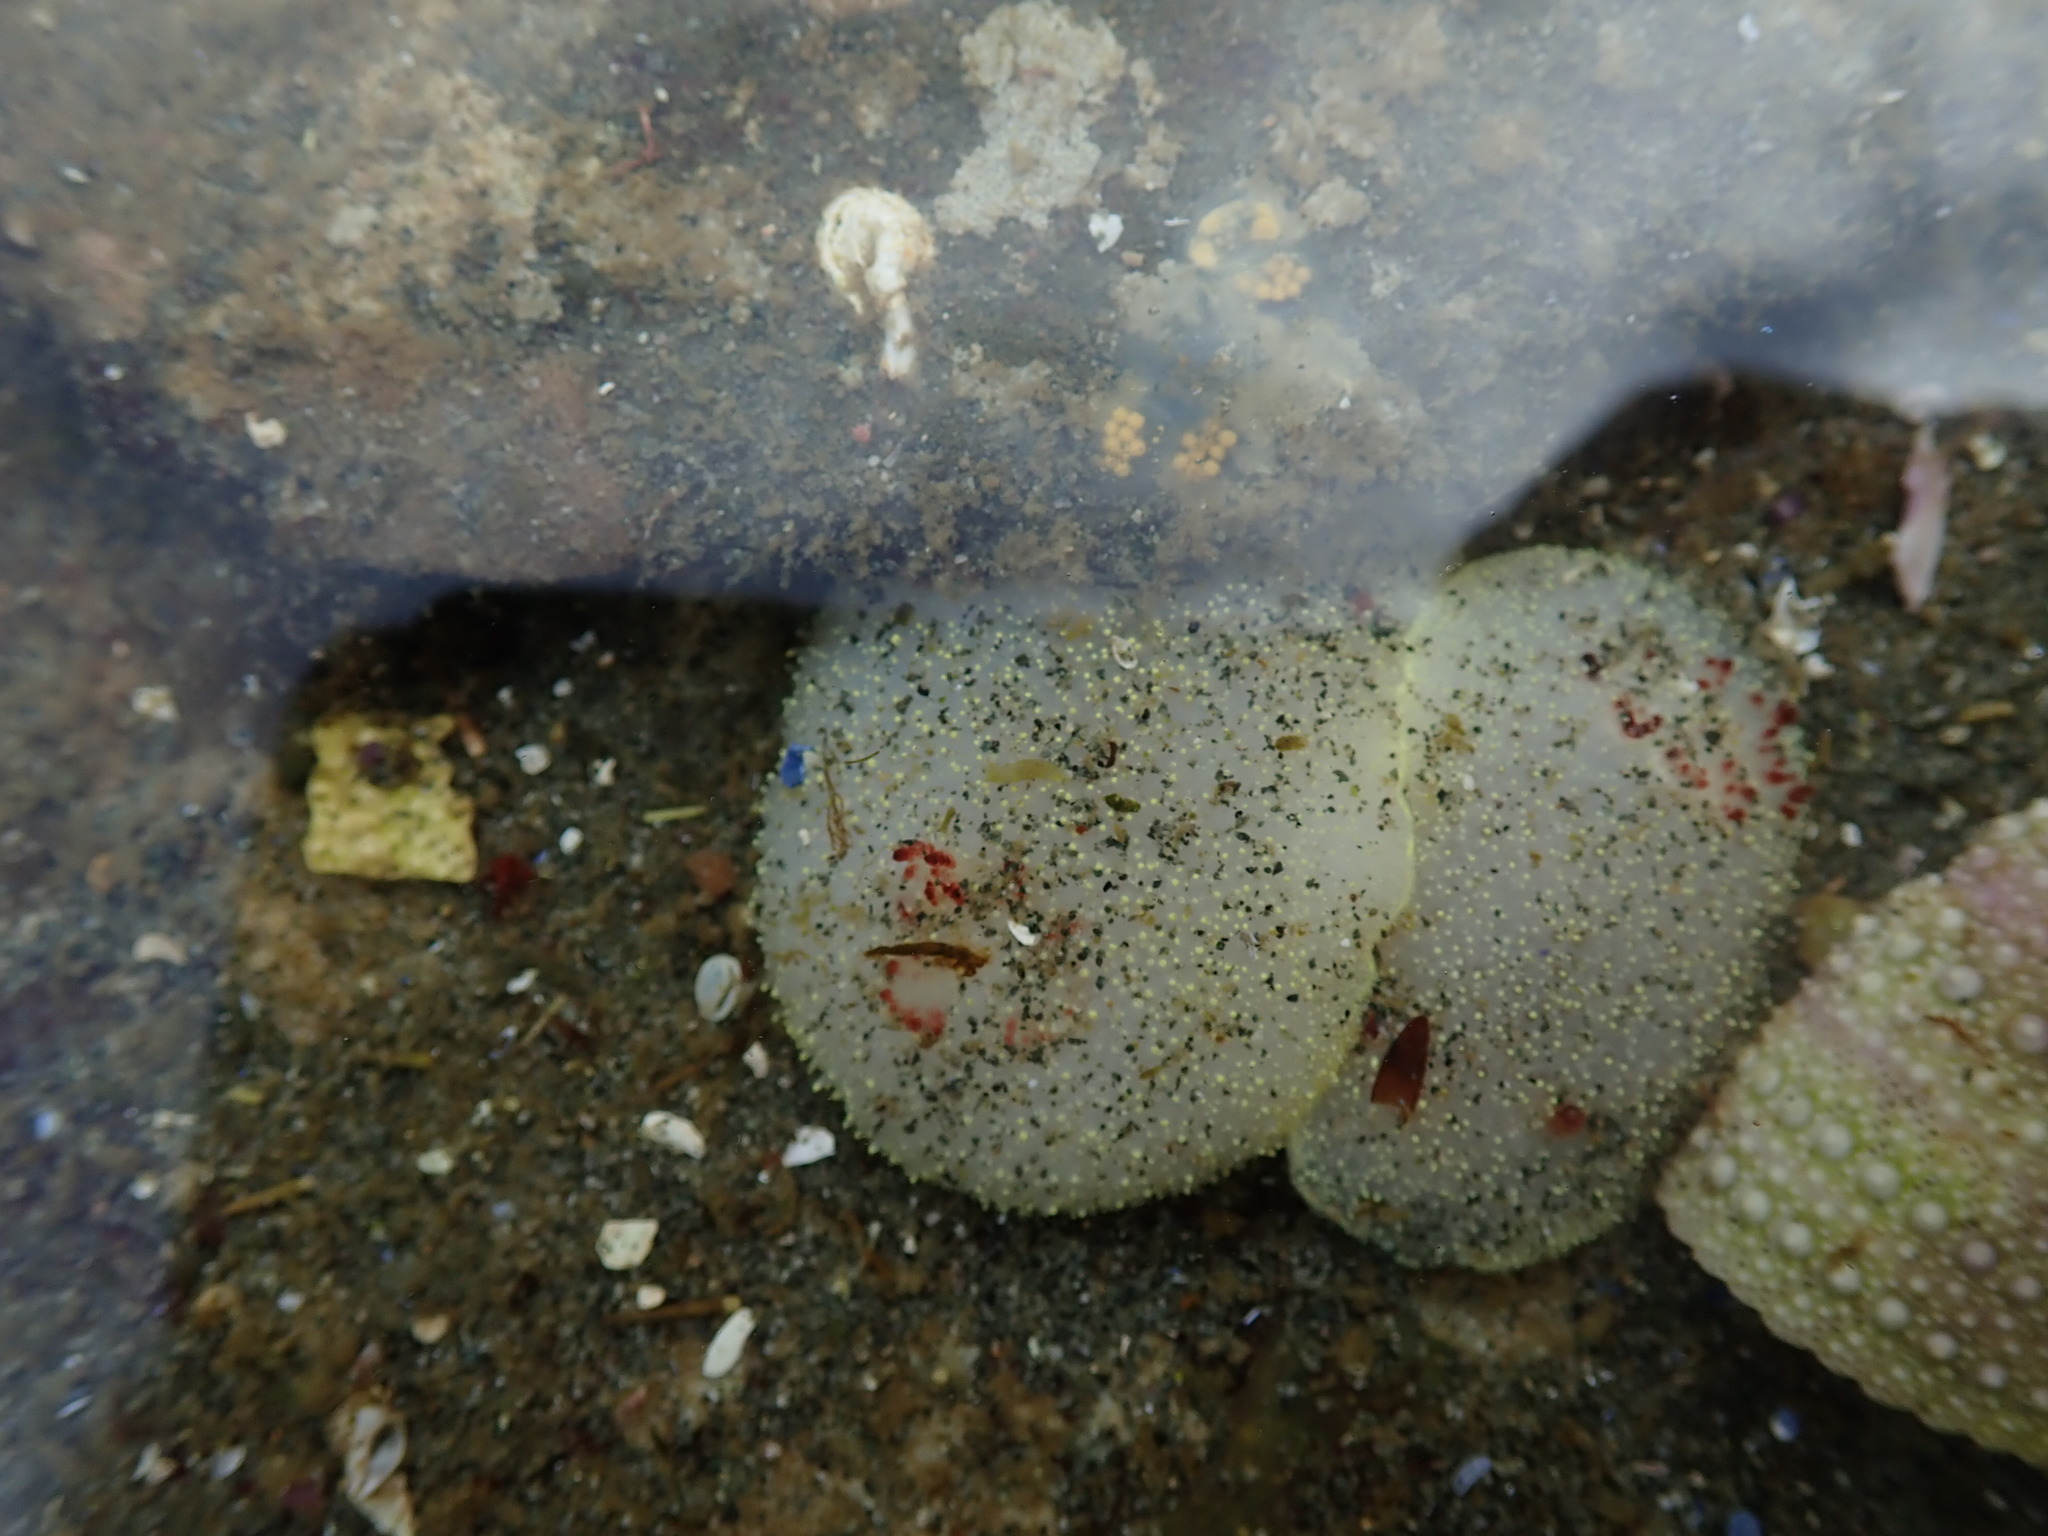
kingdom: Animalia
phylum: Mollusca
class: Gastropoda
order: Nudibranchia
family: Onchidorididae
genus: Acanthodoris
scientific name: Acanthodoris nanaimoensis
